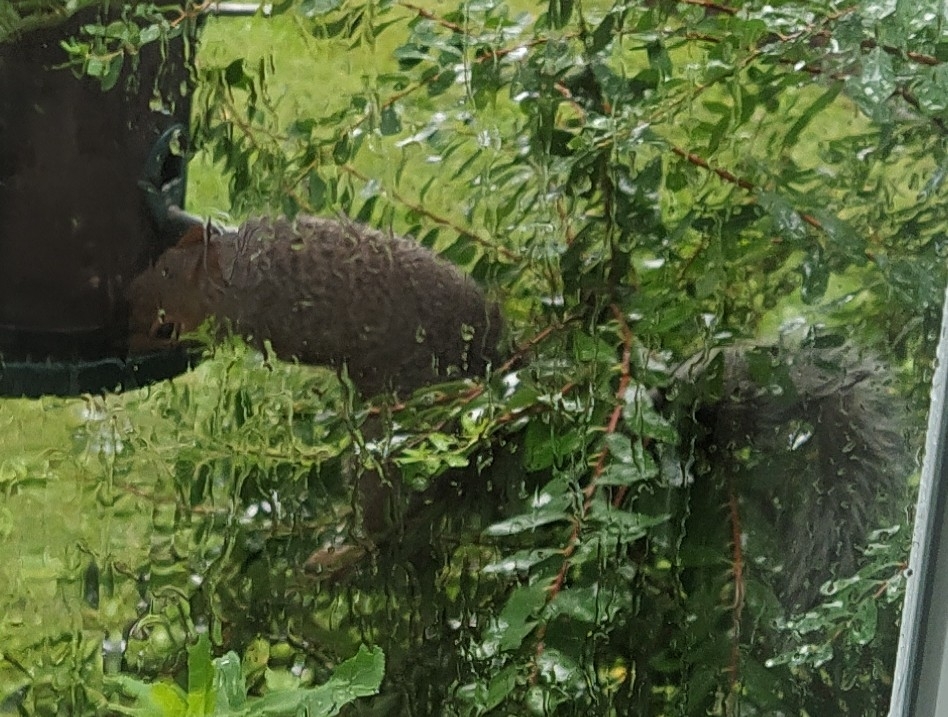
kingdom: Animalia
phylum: Chordata
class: Mammalia
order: Rodentia
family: Sciuridae
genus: Sciurus
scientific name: Sciurus carolinensis
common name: Eastern gray squirrel
